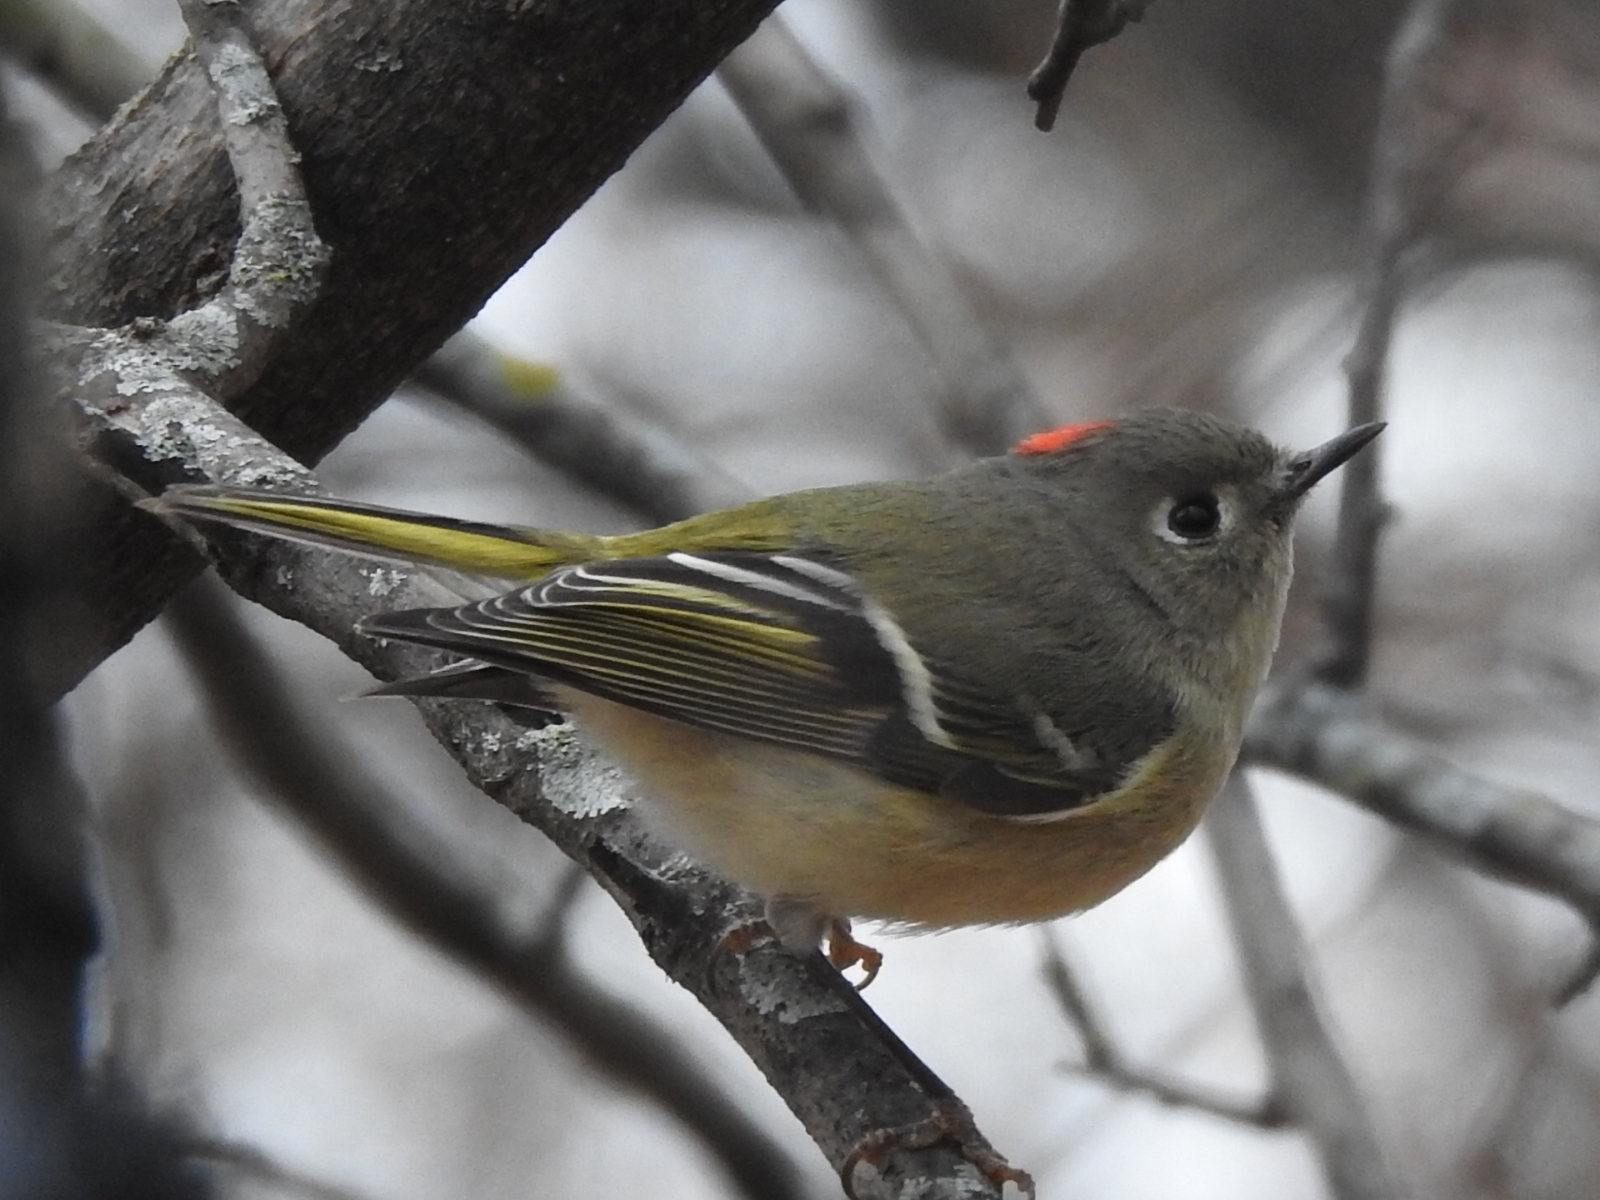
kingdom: Animalia
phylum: Chordata
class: Aves
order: Passeriformes
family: Regulidae
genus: Regulus
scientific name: Regulus calendula
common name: Ruby-crowned kinglet
